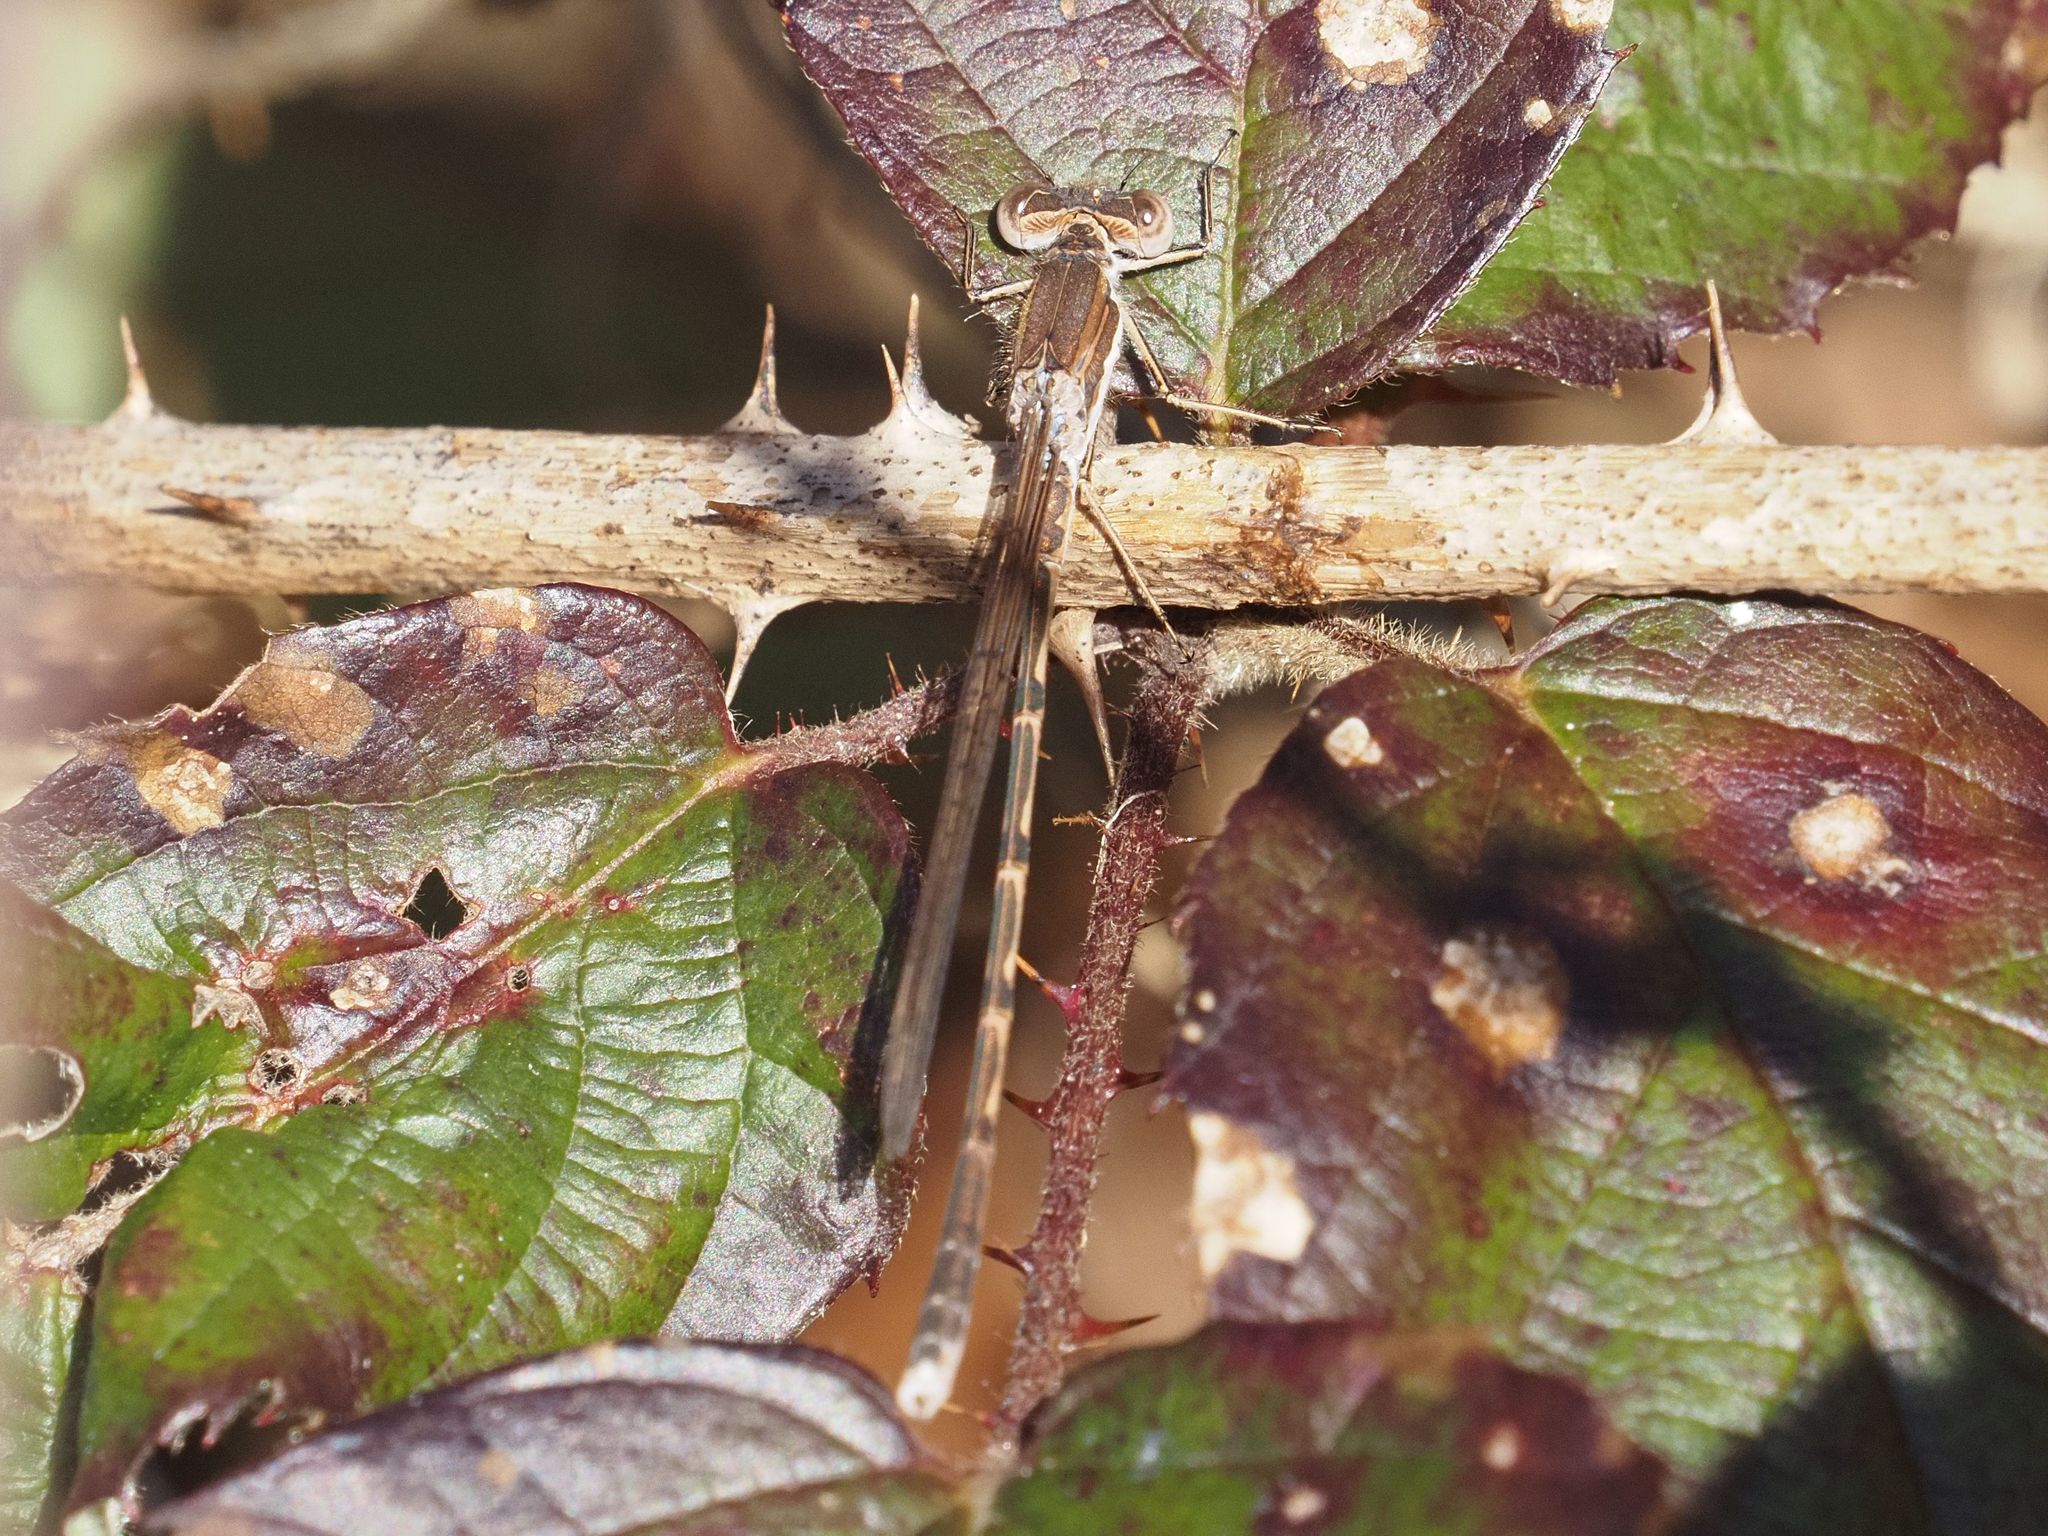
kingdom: Animalia
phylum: Arthropoda
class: Insecta
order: Odonata
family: Lestidae
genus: Sympecma
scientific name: Sympecma fusca
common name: Common winter damsel
